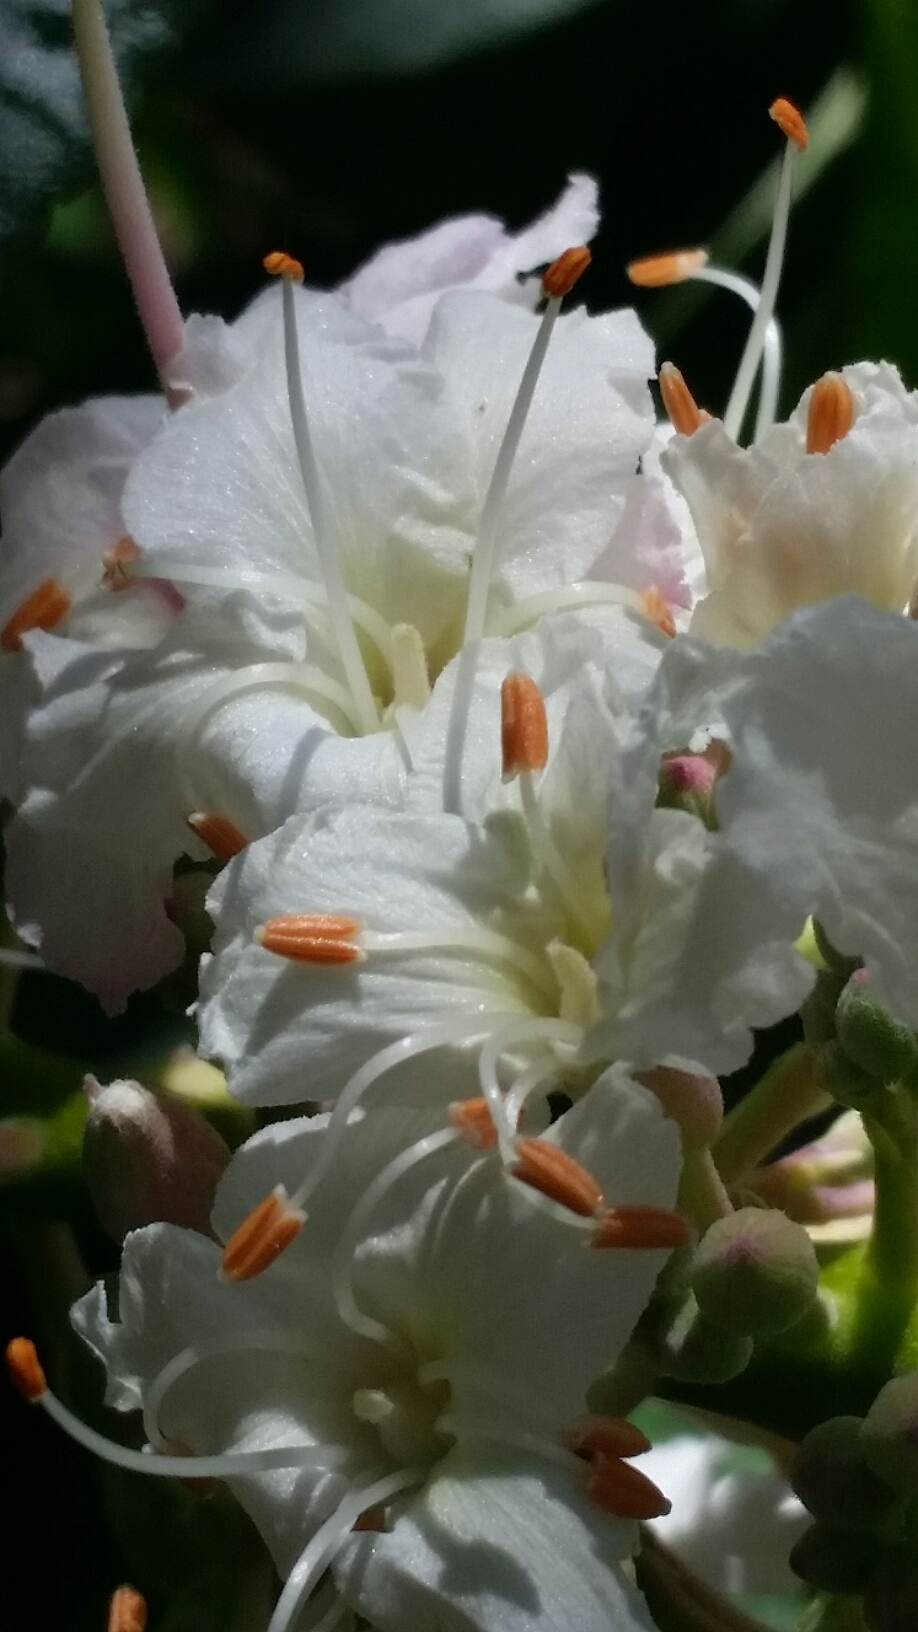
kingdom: Plantae
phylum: Tracheophyta
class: Magnoliopsida
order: Sapindales
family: Sapindaceae
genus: Aesculus
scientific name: Aesculus californica
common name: California buckeye
